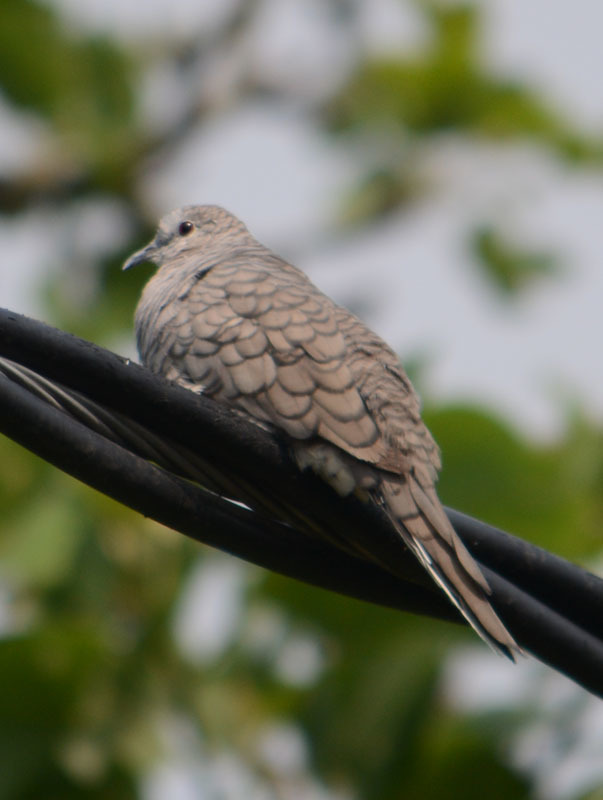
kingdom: Animalia
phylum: Chordata
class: Aves
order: Columbiformes
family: Columbidae
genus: Columbina
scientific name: Columbina inca
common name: Inca dove
